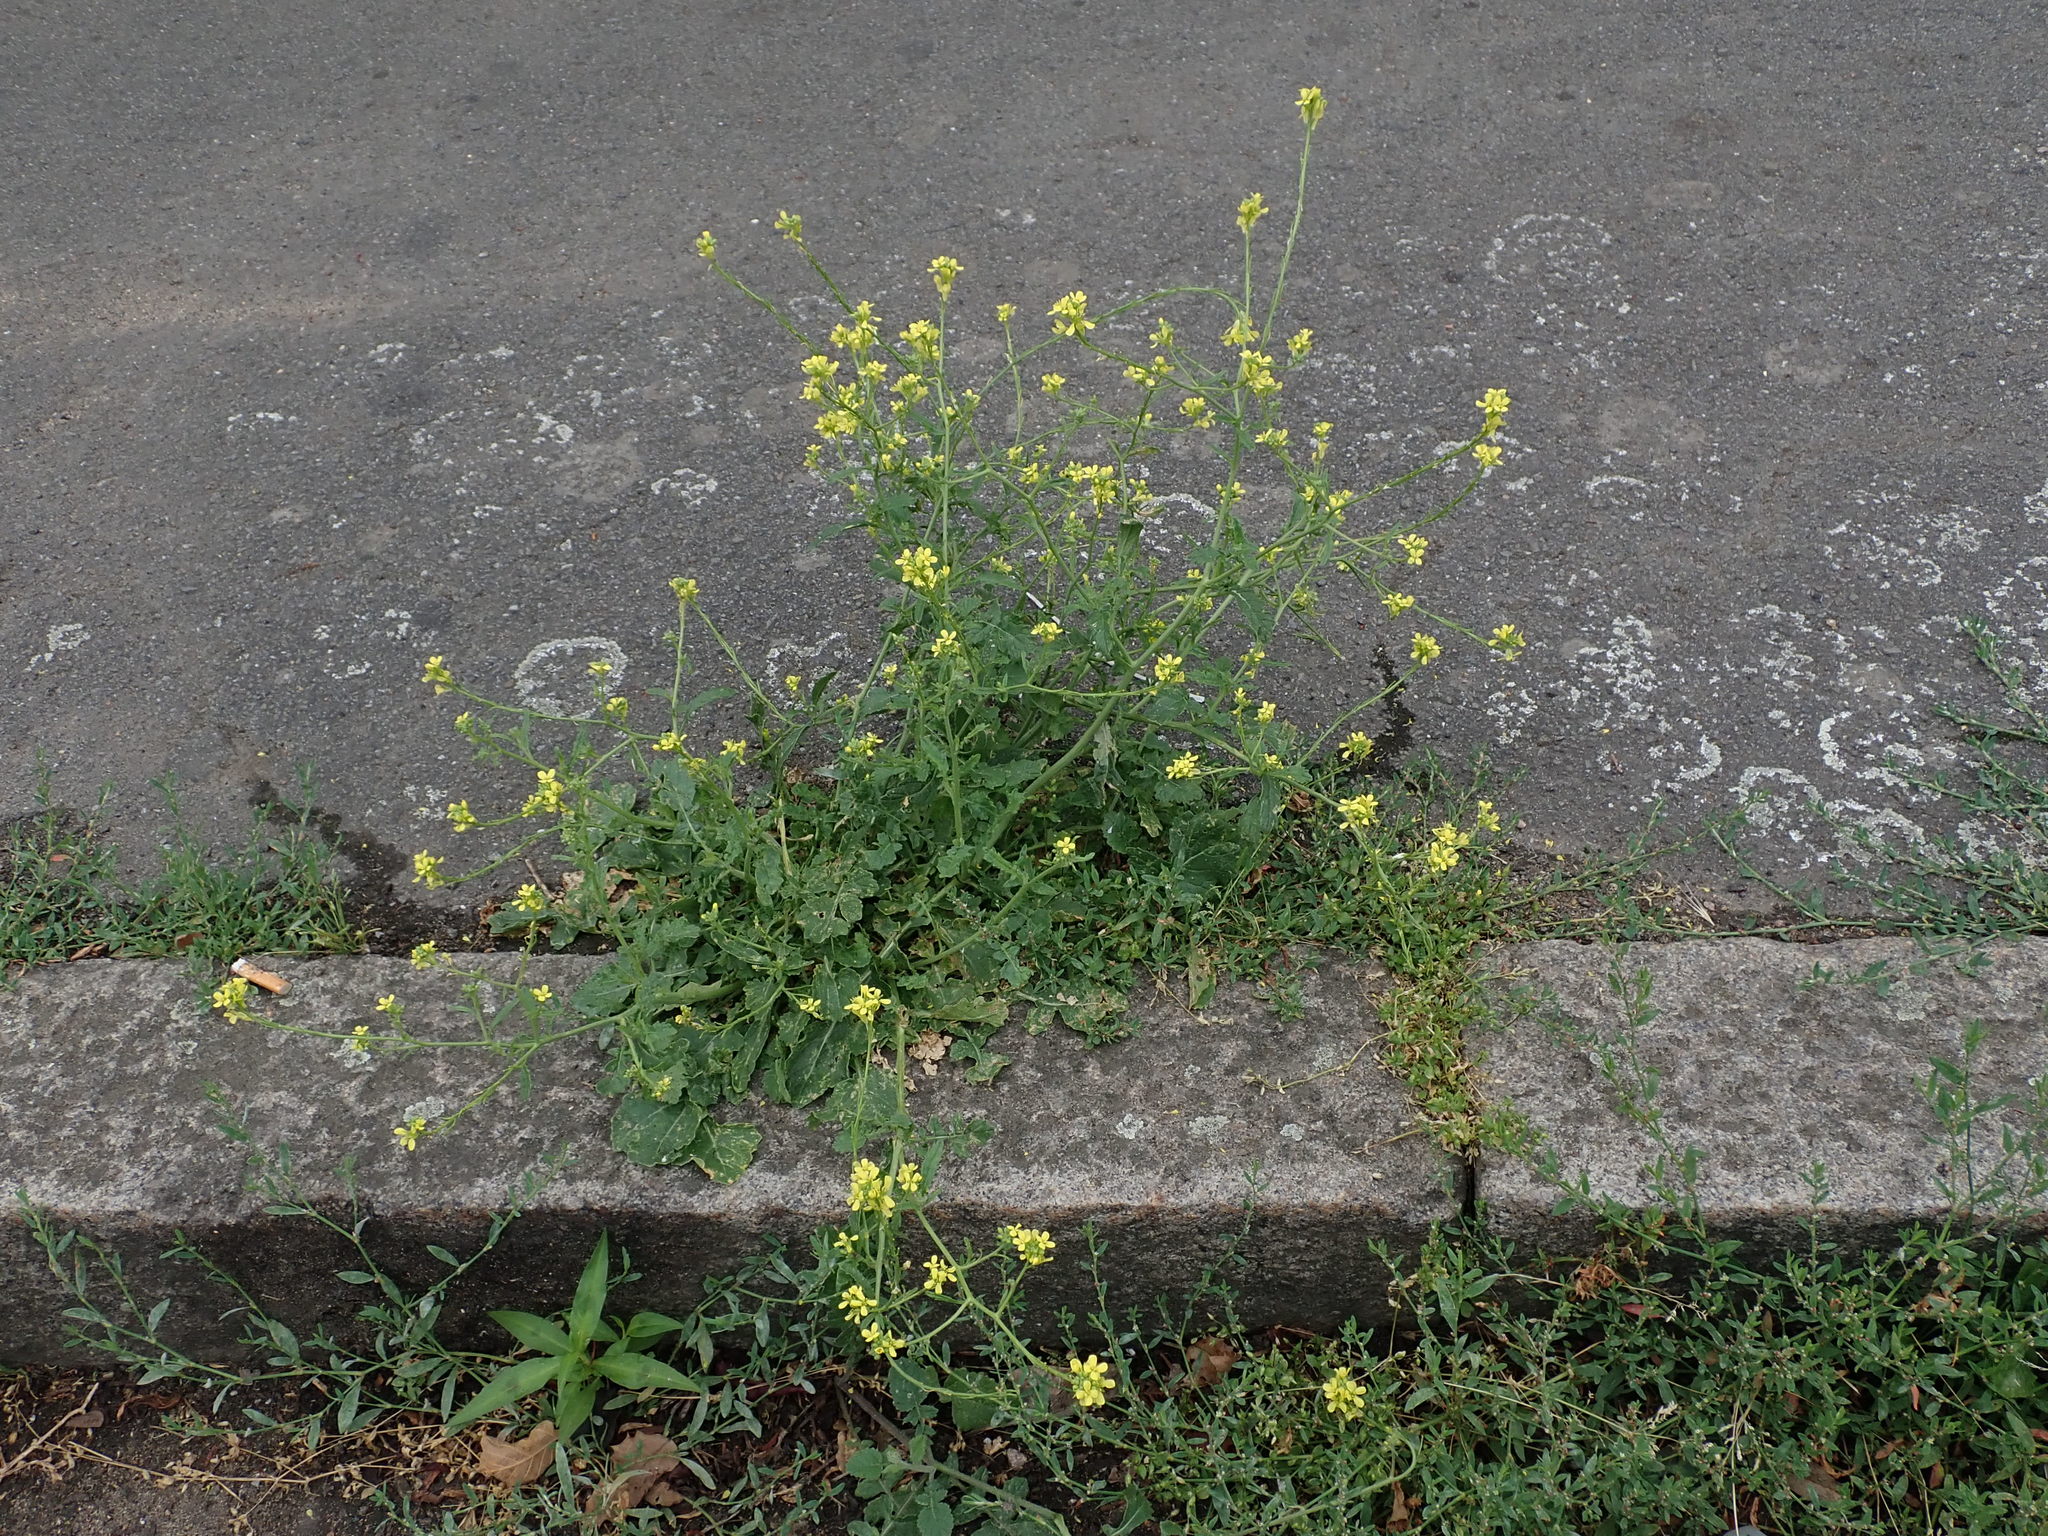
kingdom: Plantae
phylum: Tracheophyta
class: Magnoliopsida
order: Brassicales
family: Brassicaceae
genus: Hirschfeldia
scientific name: Hirschfeldia incana
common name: Hoary mustard
